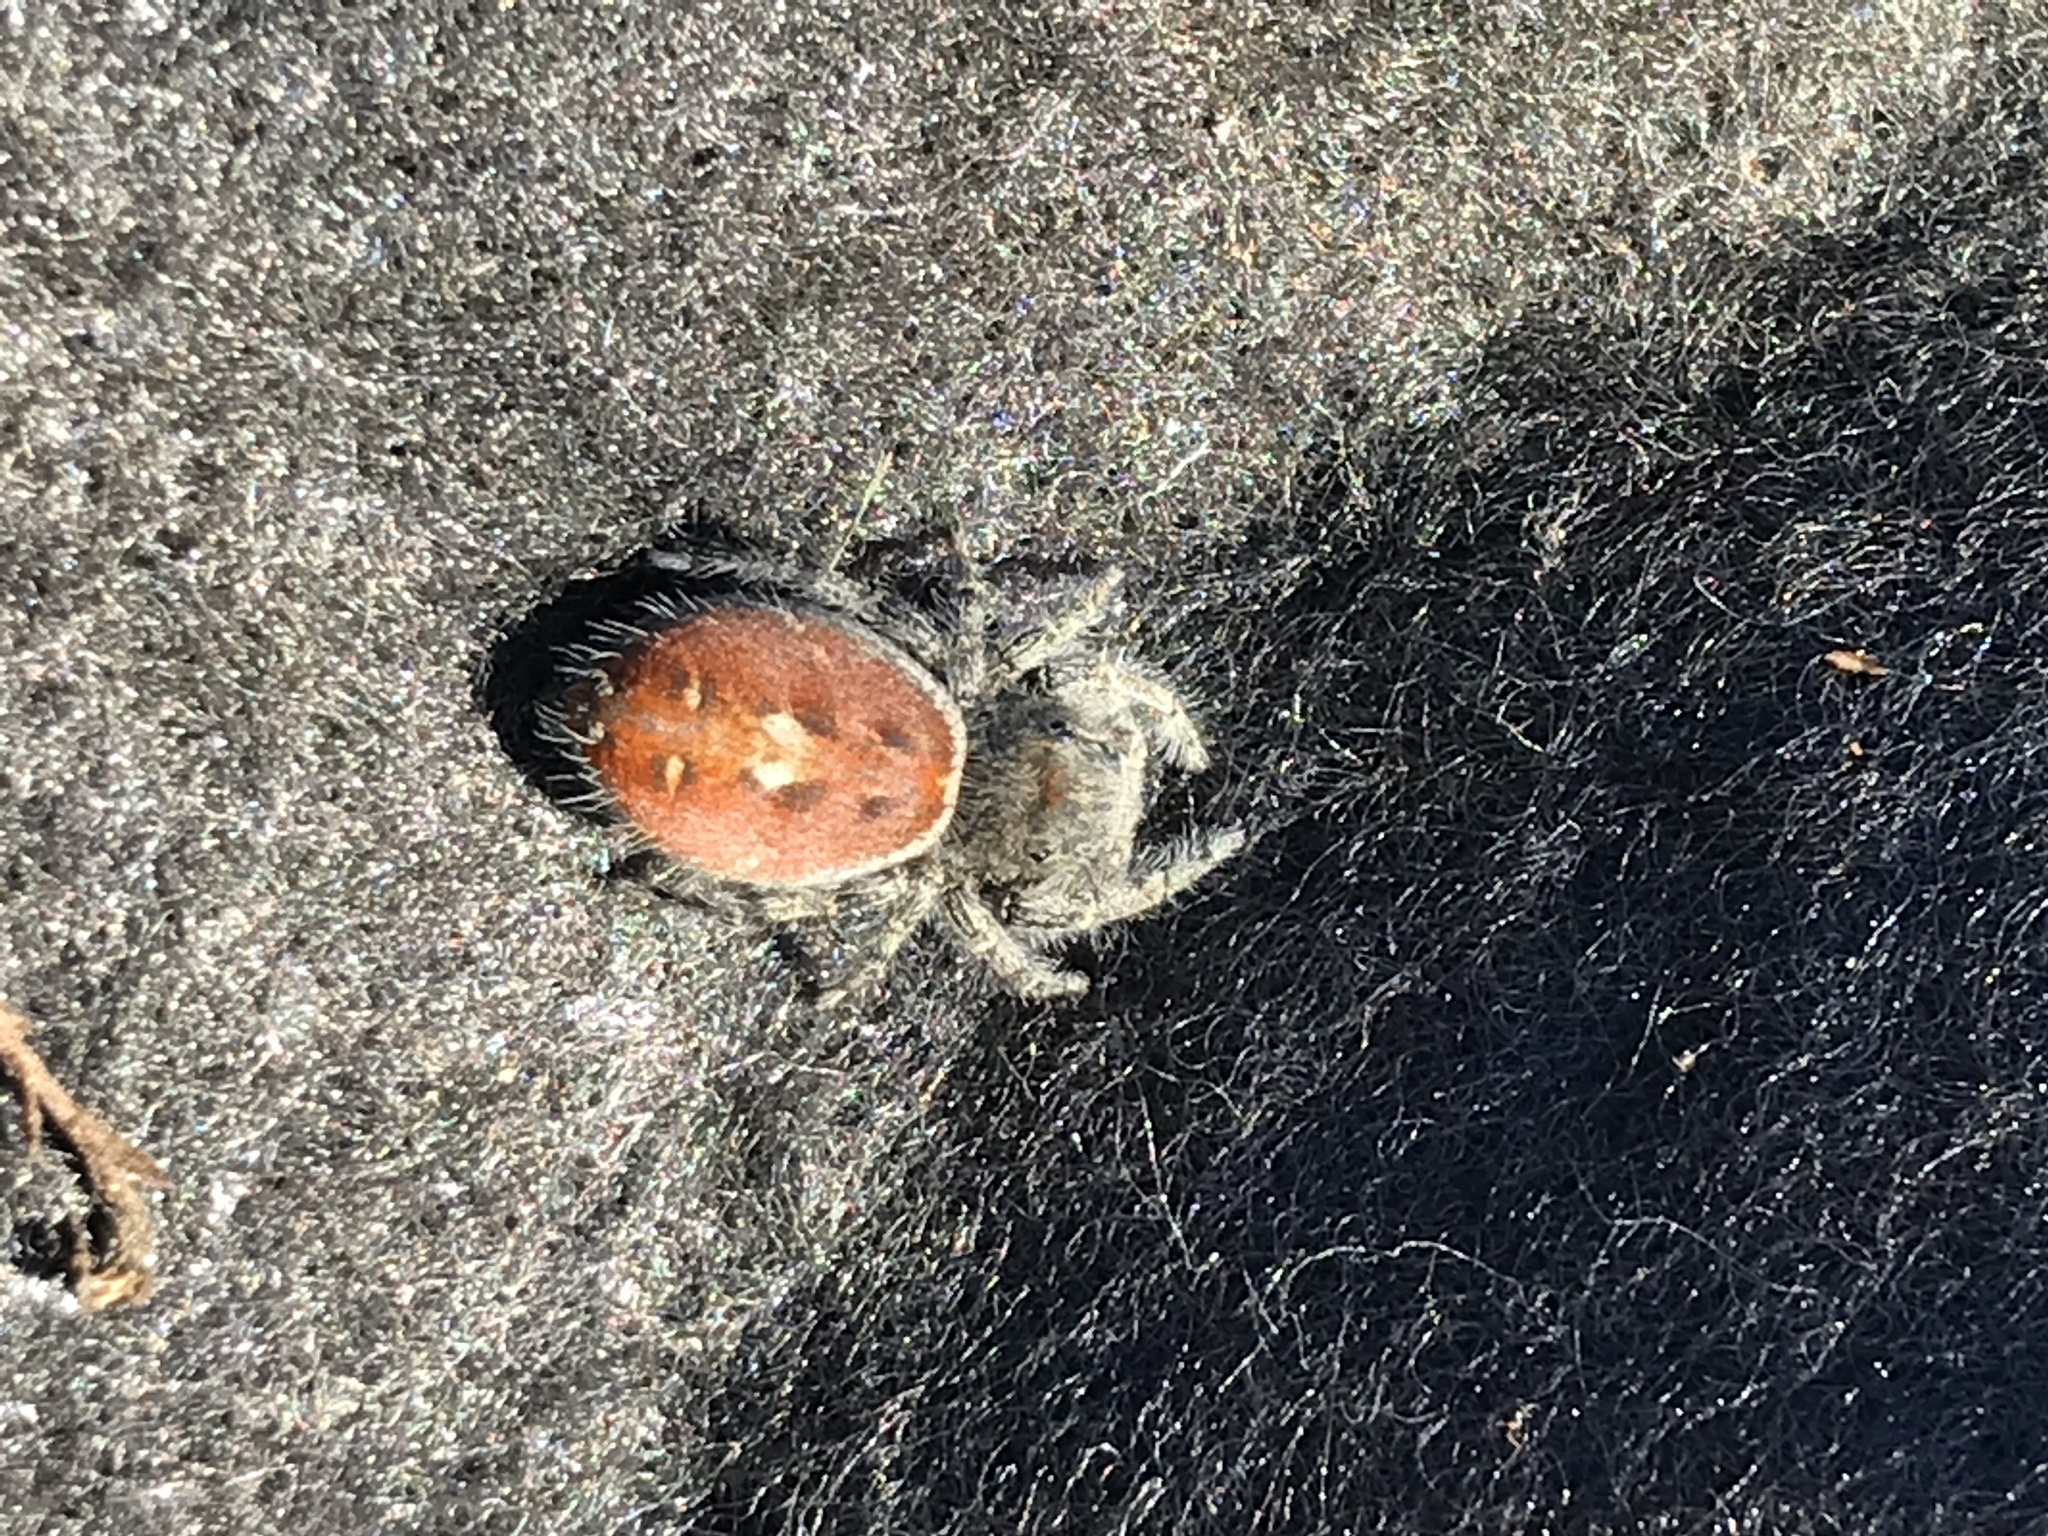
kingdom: Animalia
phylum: Arthropoda
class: Arachnida
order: Araneae
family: Salticidae
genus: Phidippus
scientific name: Phidippus adumbratus
